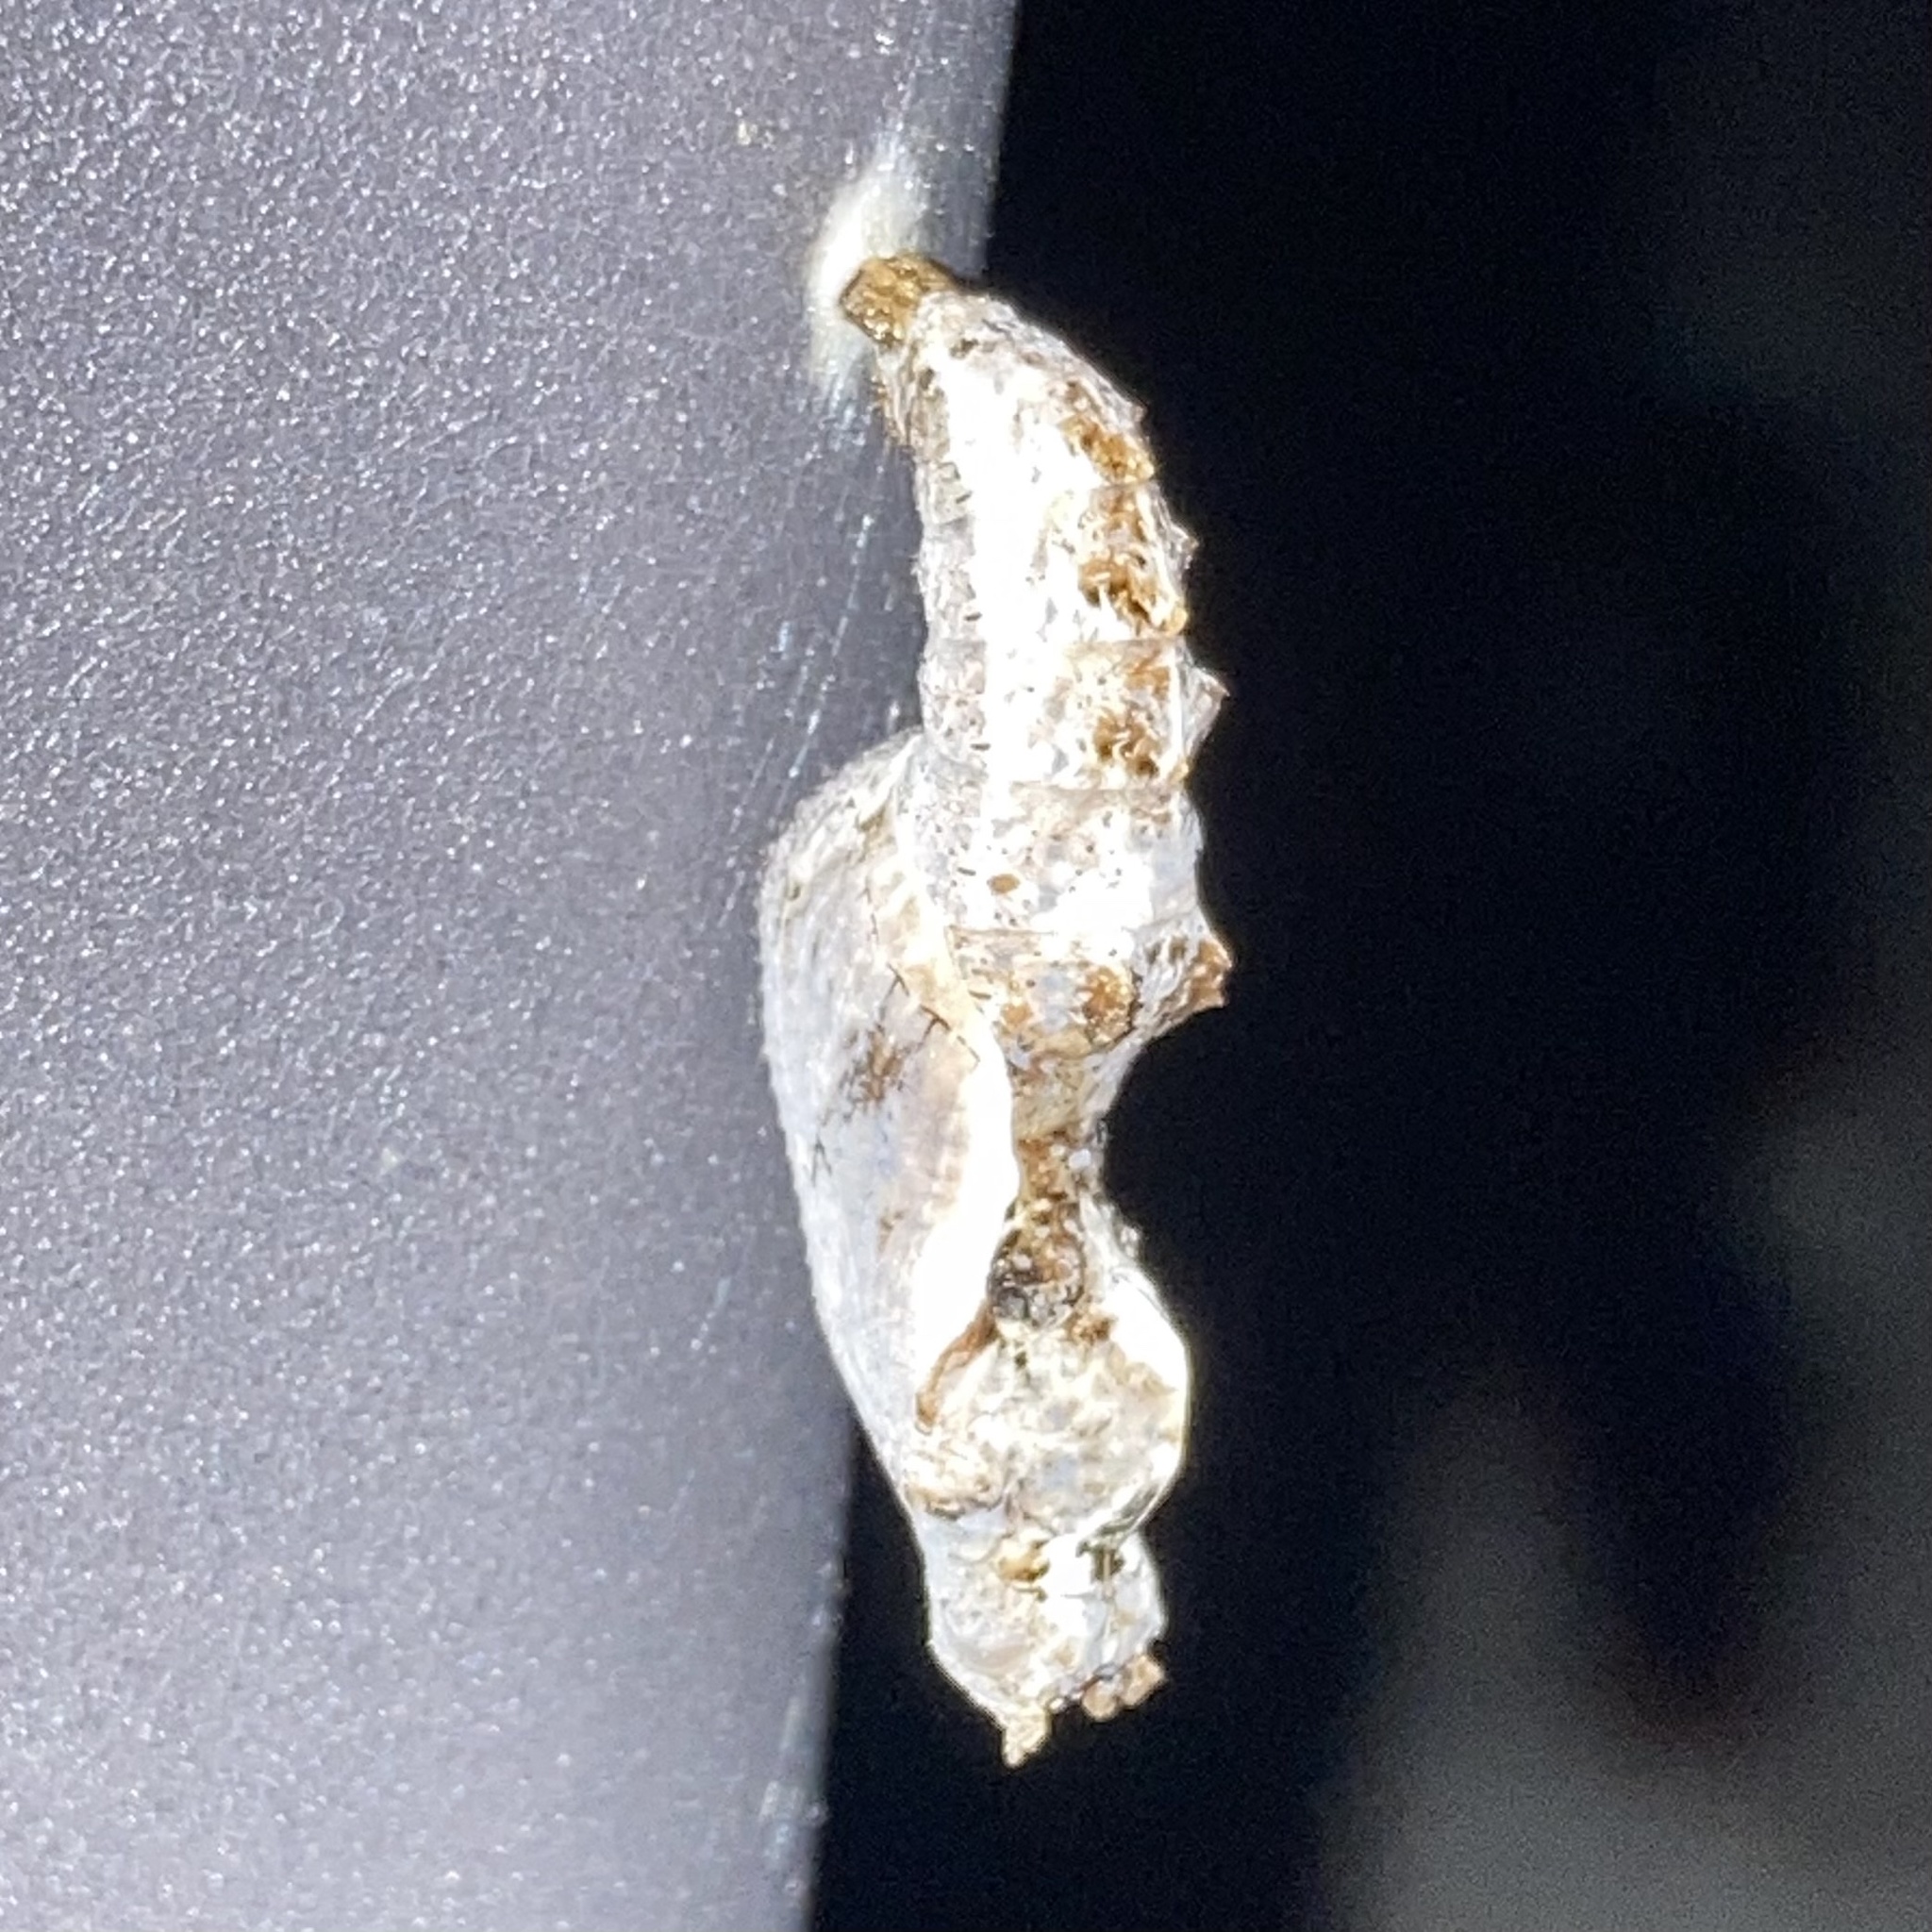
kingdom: Animalia
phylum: Arthropoda
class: Insecta
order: Lepidoptera
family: Nymphalidae
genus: Dione
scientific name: Dione vanillae
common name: Gulf fritillary
